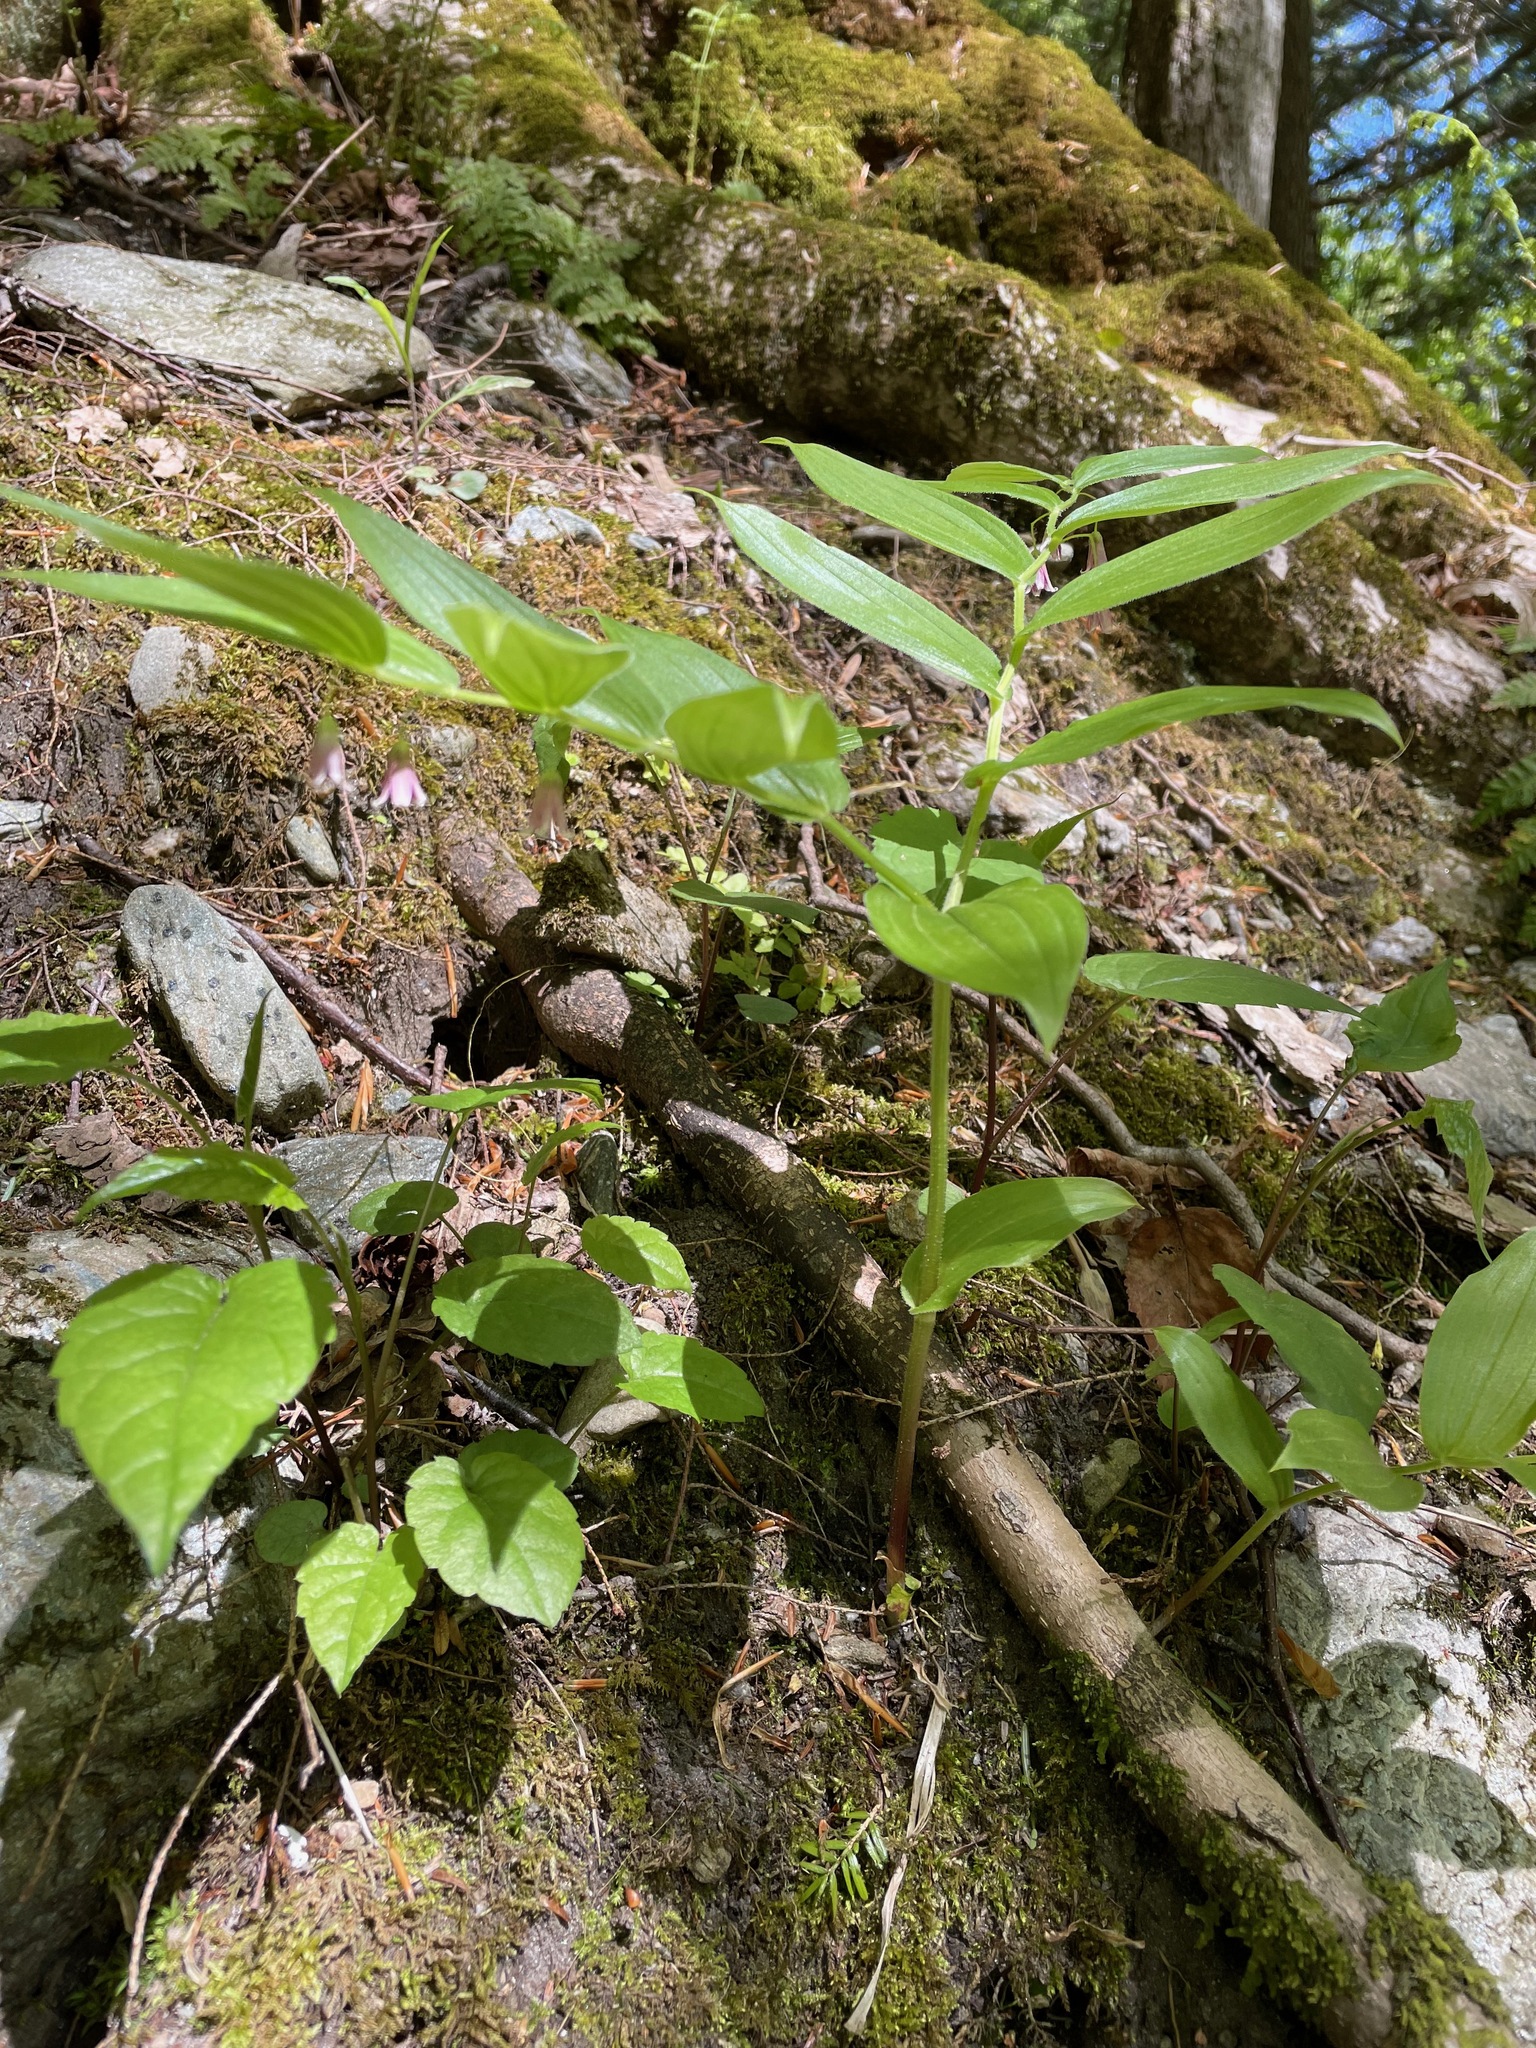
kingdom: Plantae
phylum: Tracheophyta
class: Liliopsida
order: Liliales
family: Liliaceae
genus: Streptopus
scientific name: Streptopus lanceolatus
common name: Rose mandarin
